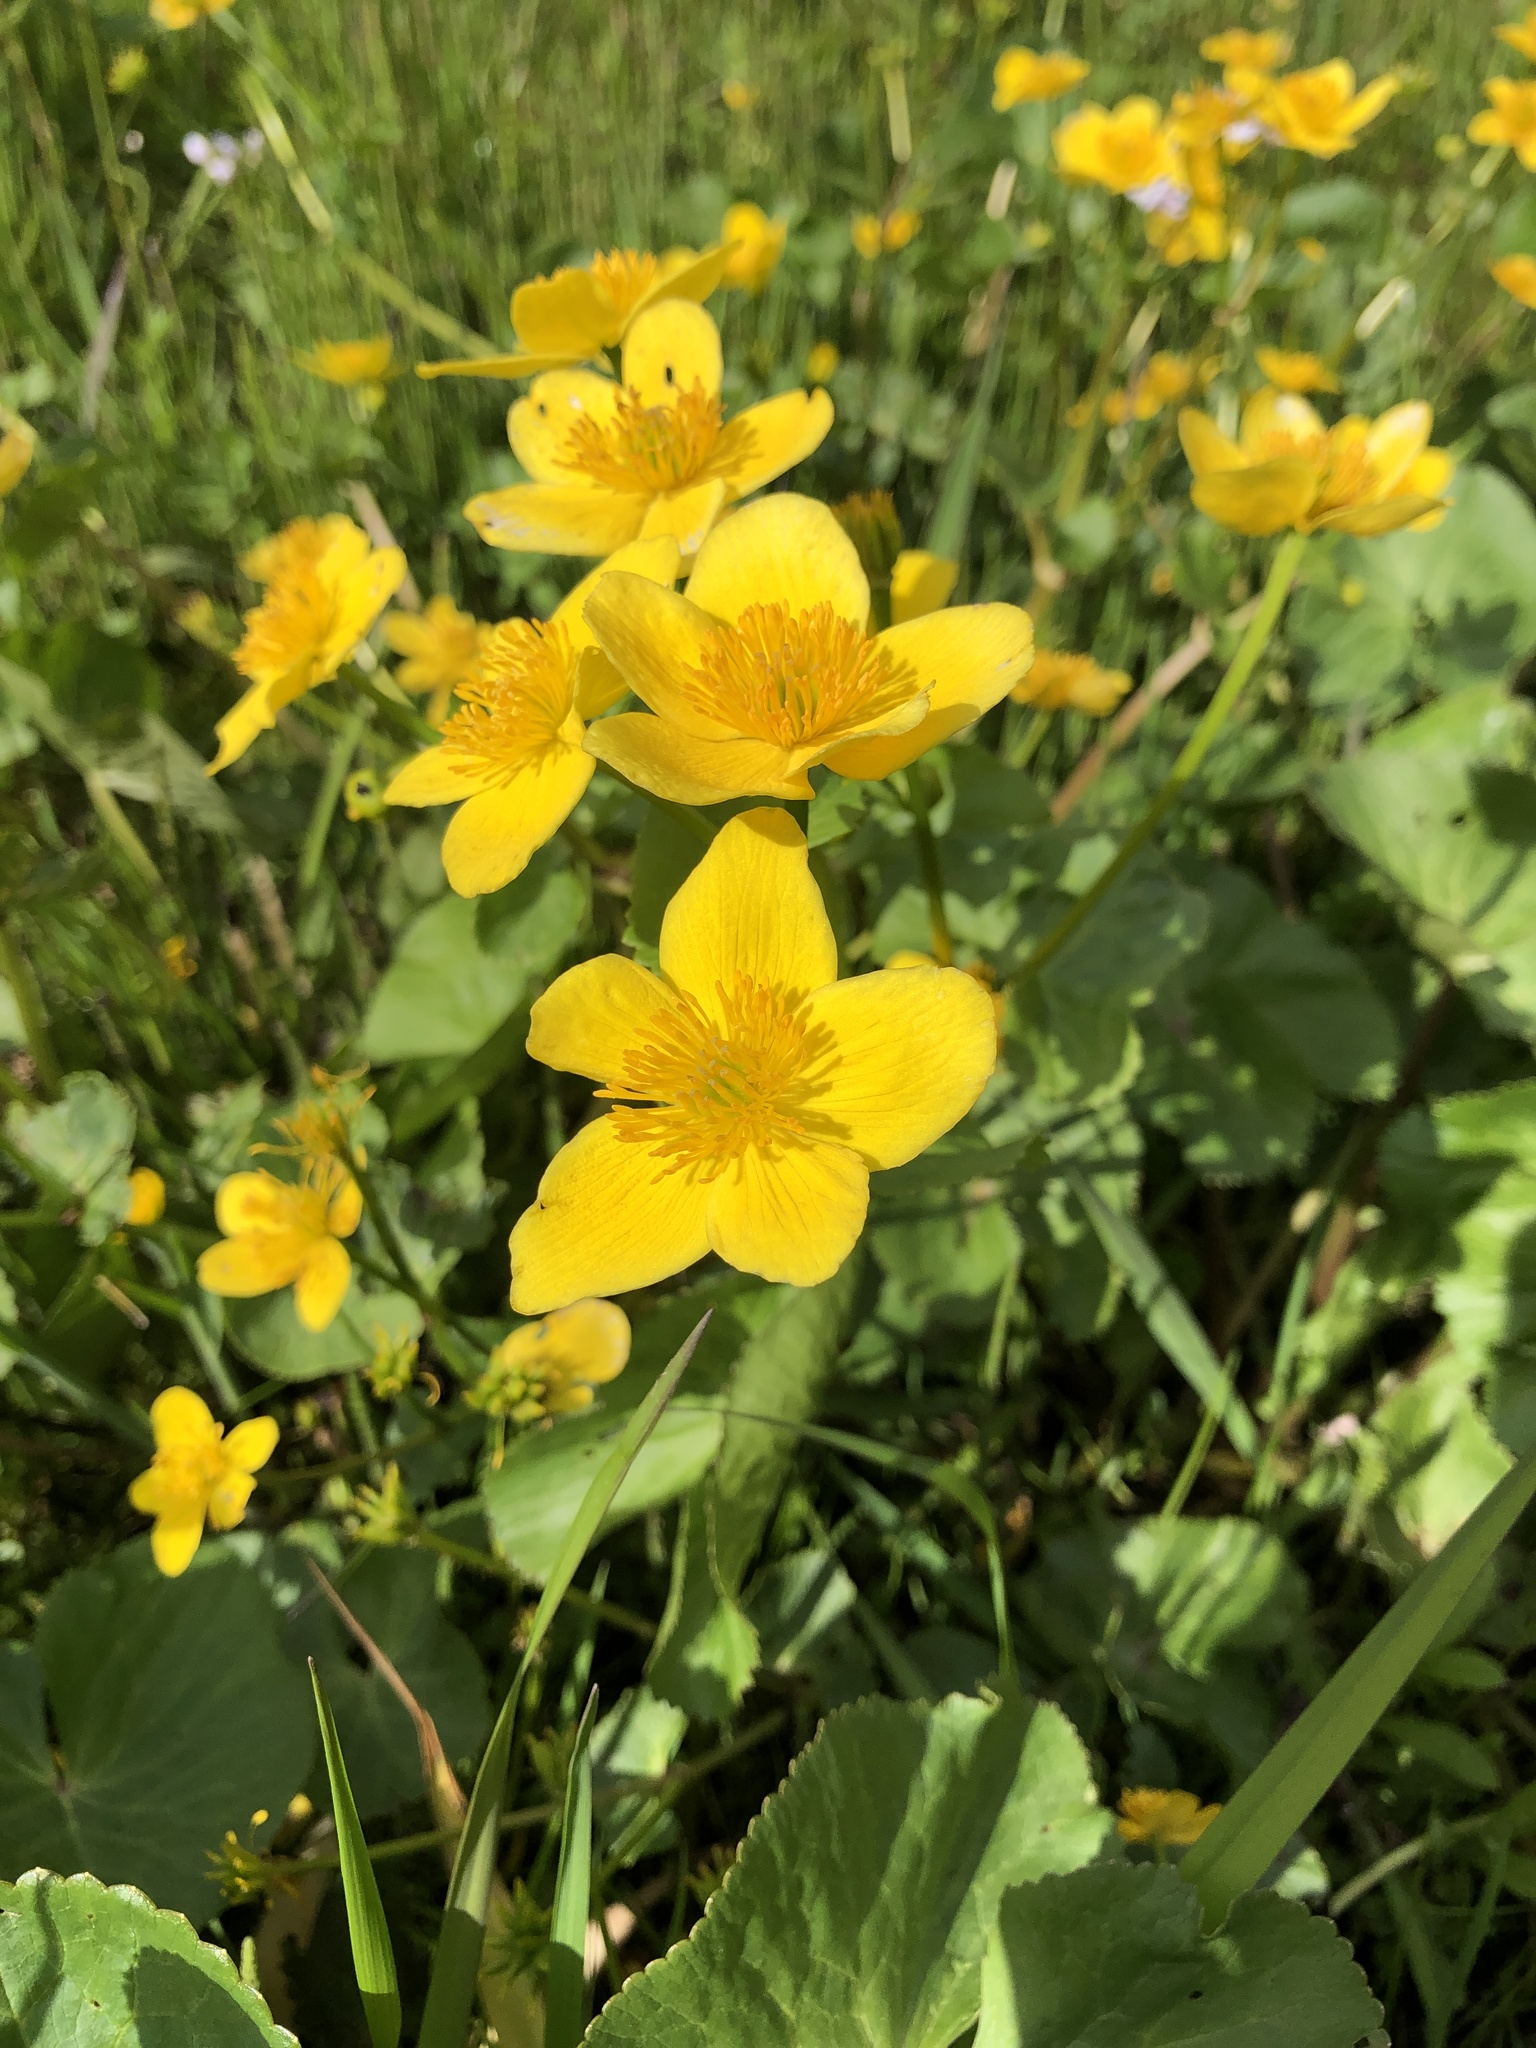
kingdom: Plantae
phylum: Tracheophyta
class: Magnoliopsida
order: Ranunculales
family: Ranunculaceae
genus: Caltha
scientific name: Caltha palustris
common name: Marsh marigold
